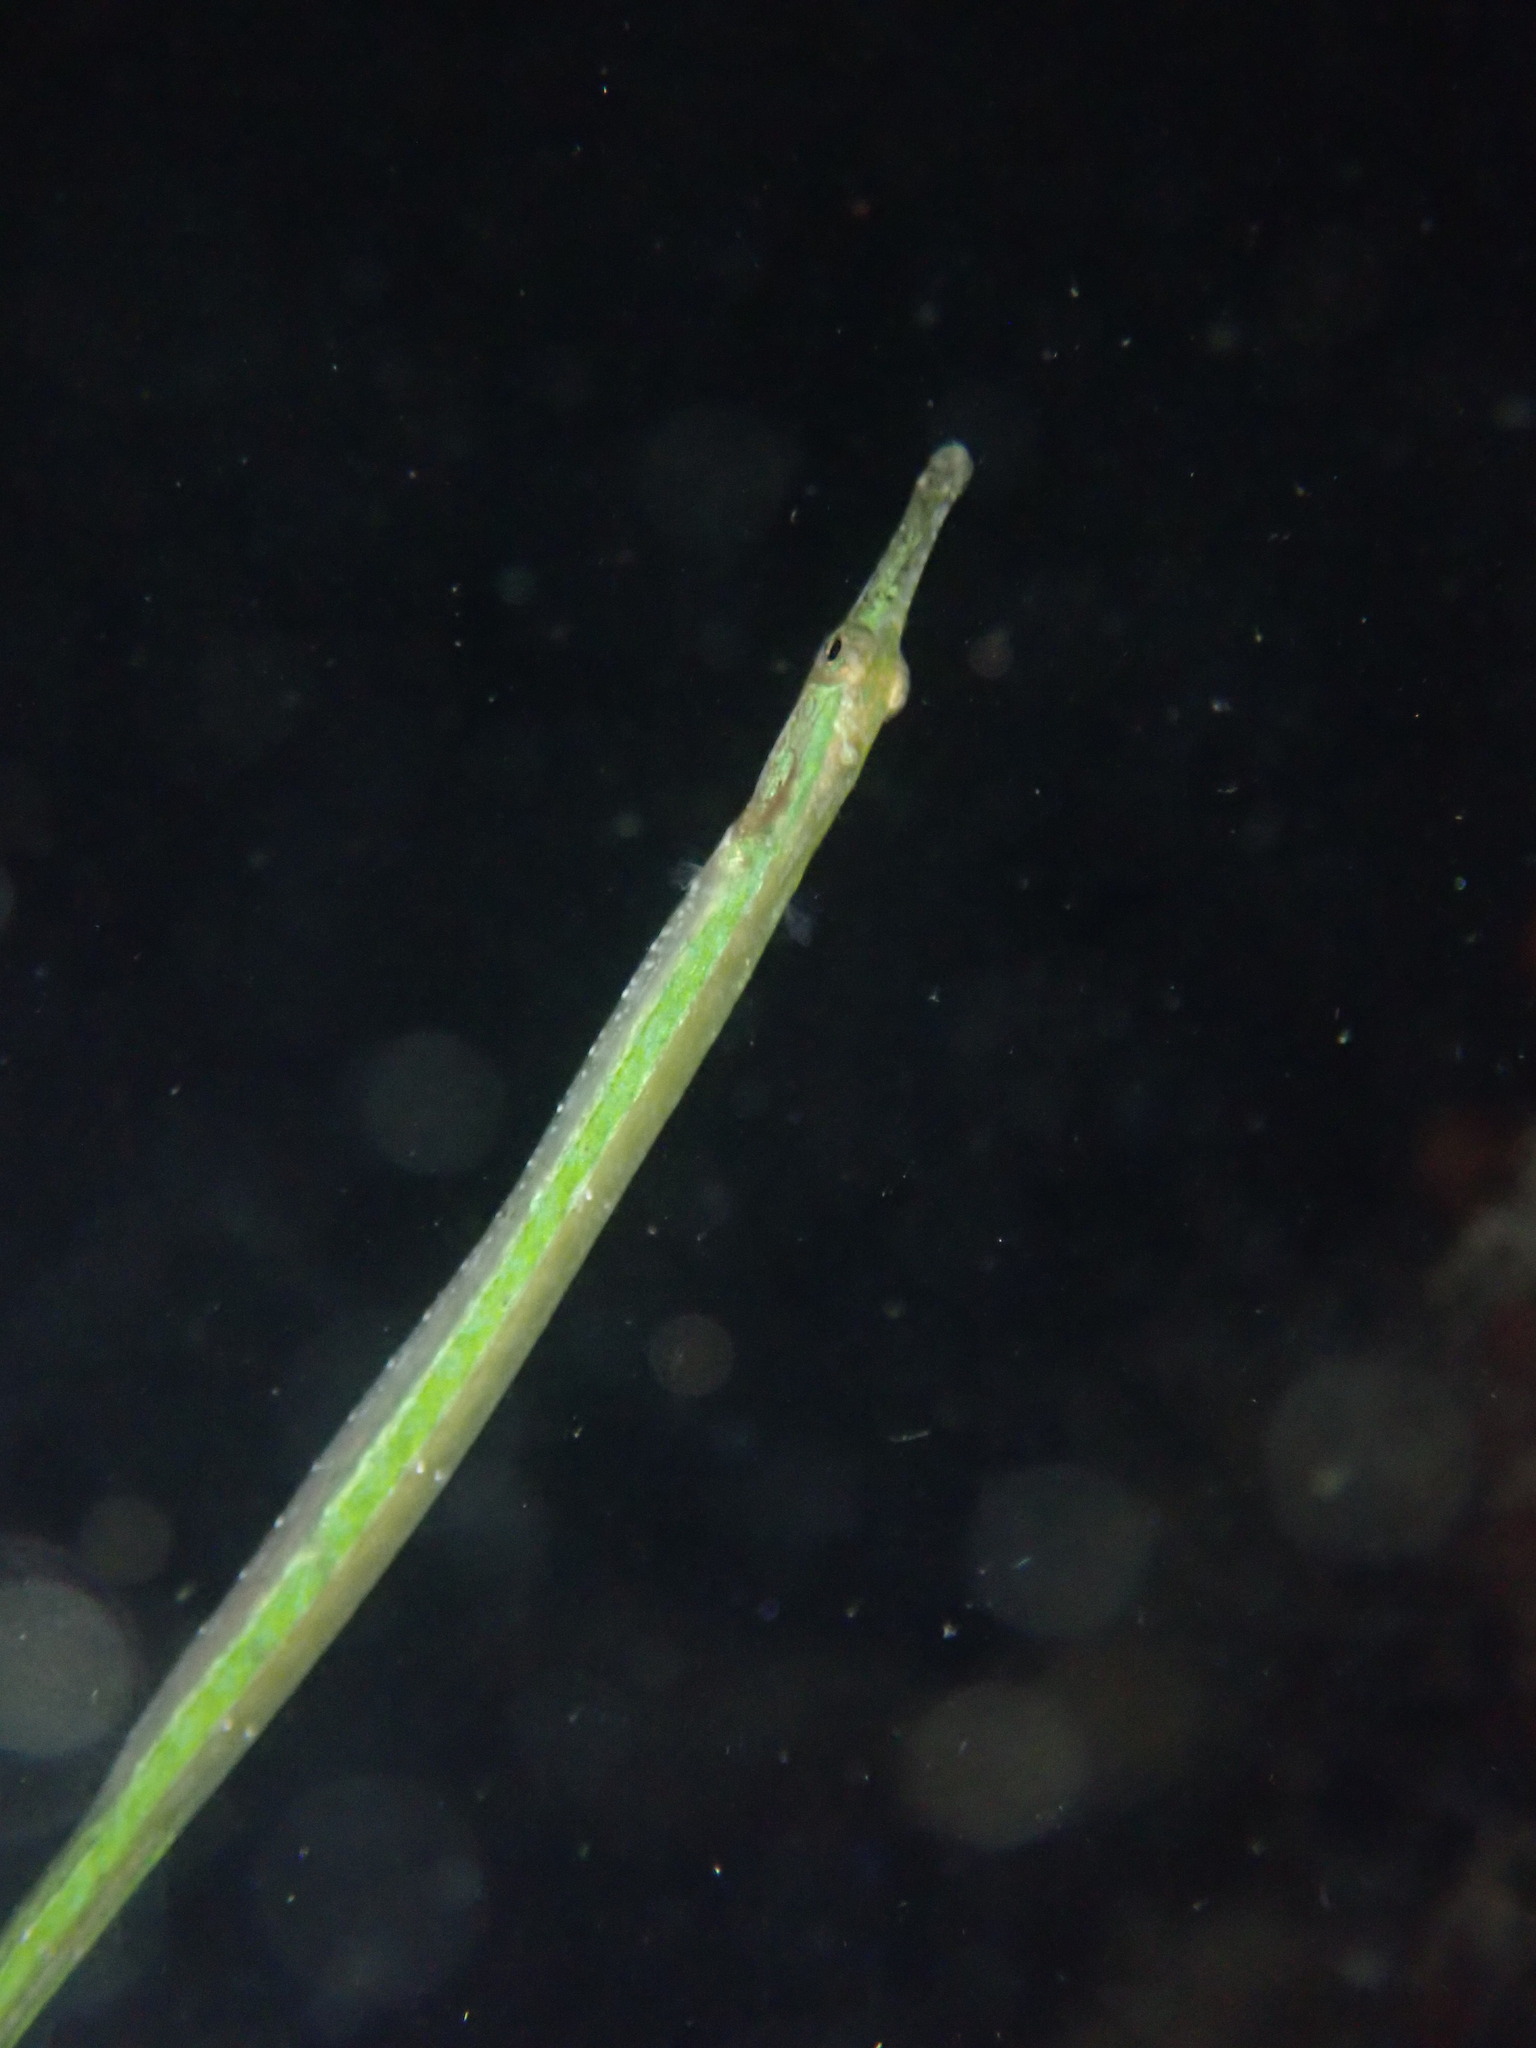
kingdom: Animalia
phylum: Chordata
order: Syngnathiformes
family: Syngnathidae
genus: Syngnathus
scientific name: Syngnathus californiensis
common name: Great pipefish
